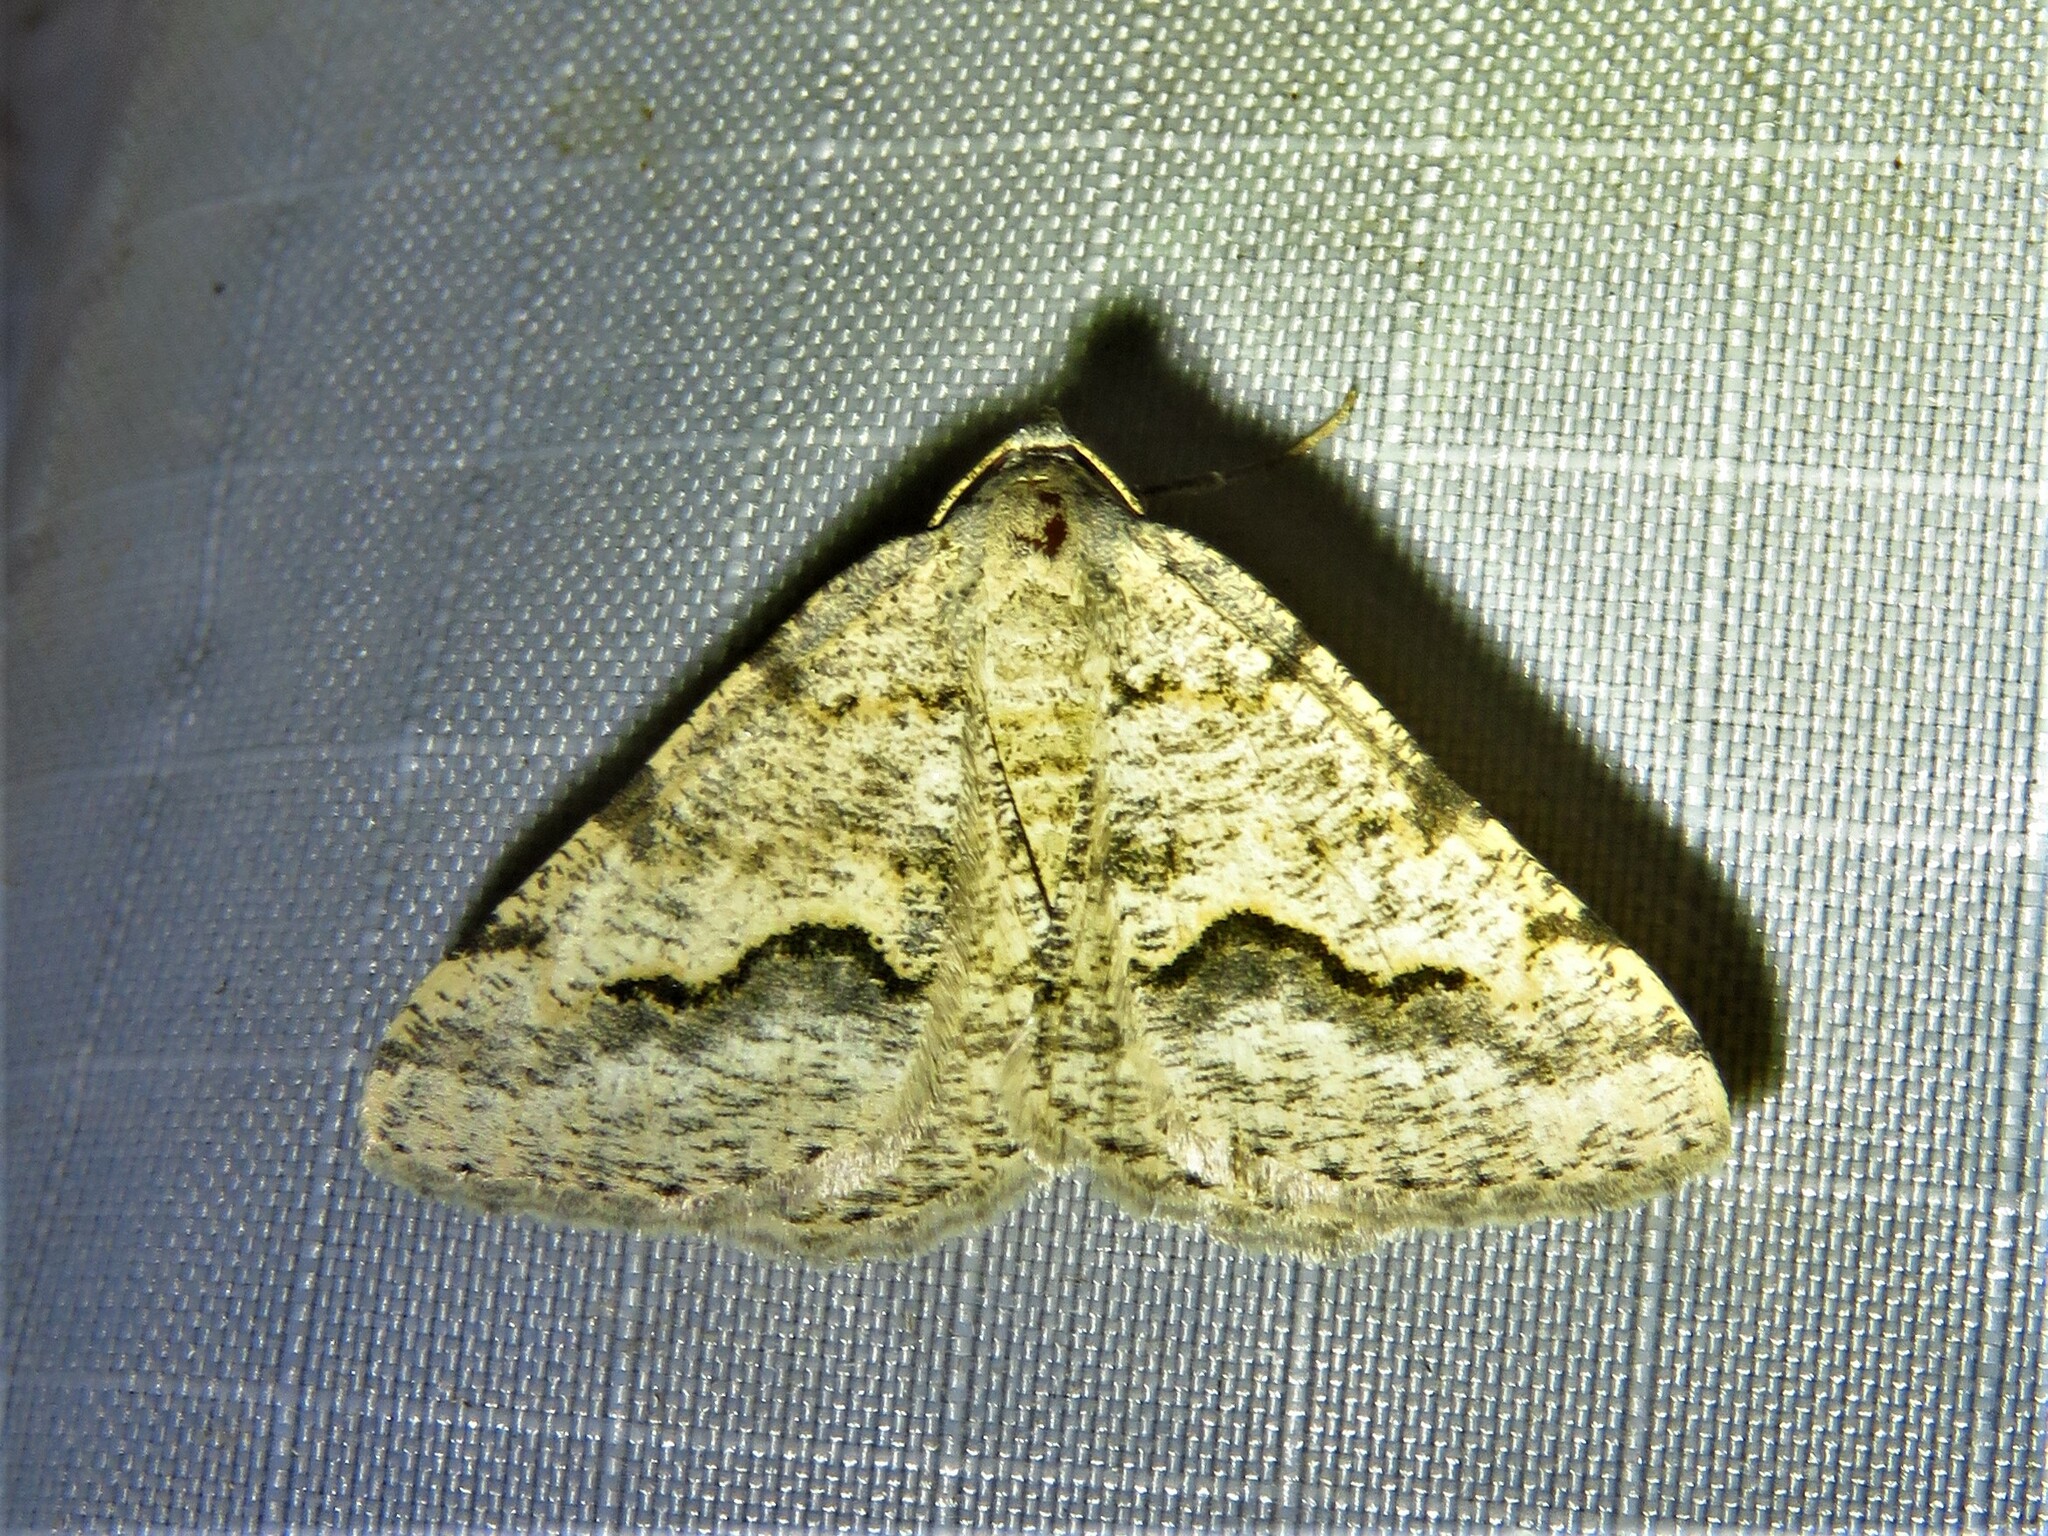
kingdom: Animalia
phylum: Arthropoda
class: Insecta
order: Lepidoptera
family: Geometridae
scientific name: Geometridae
